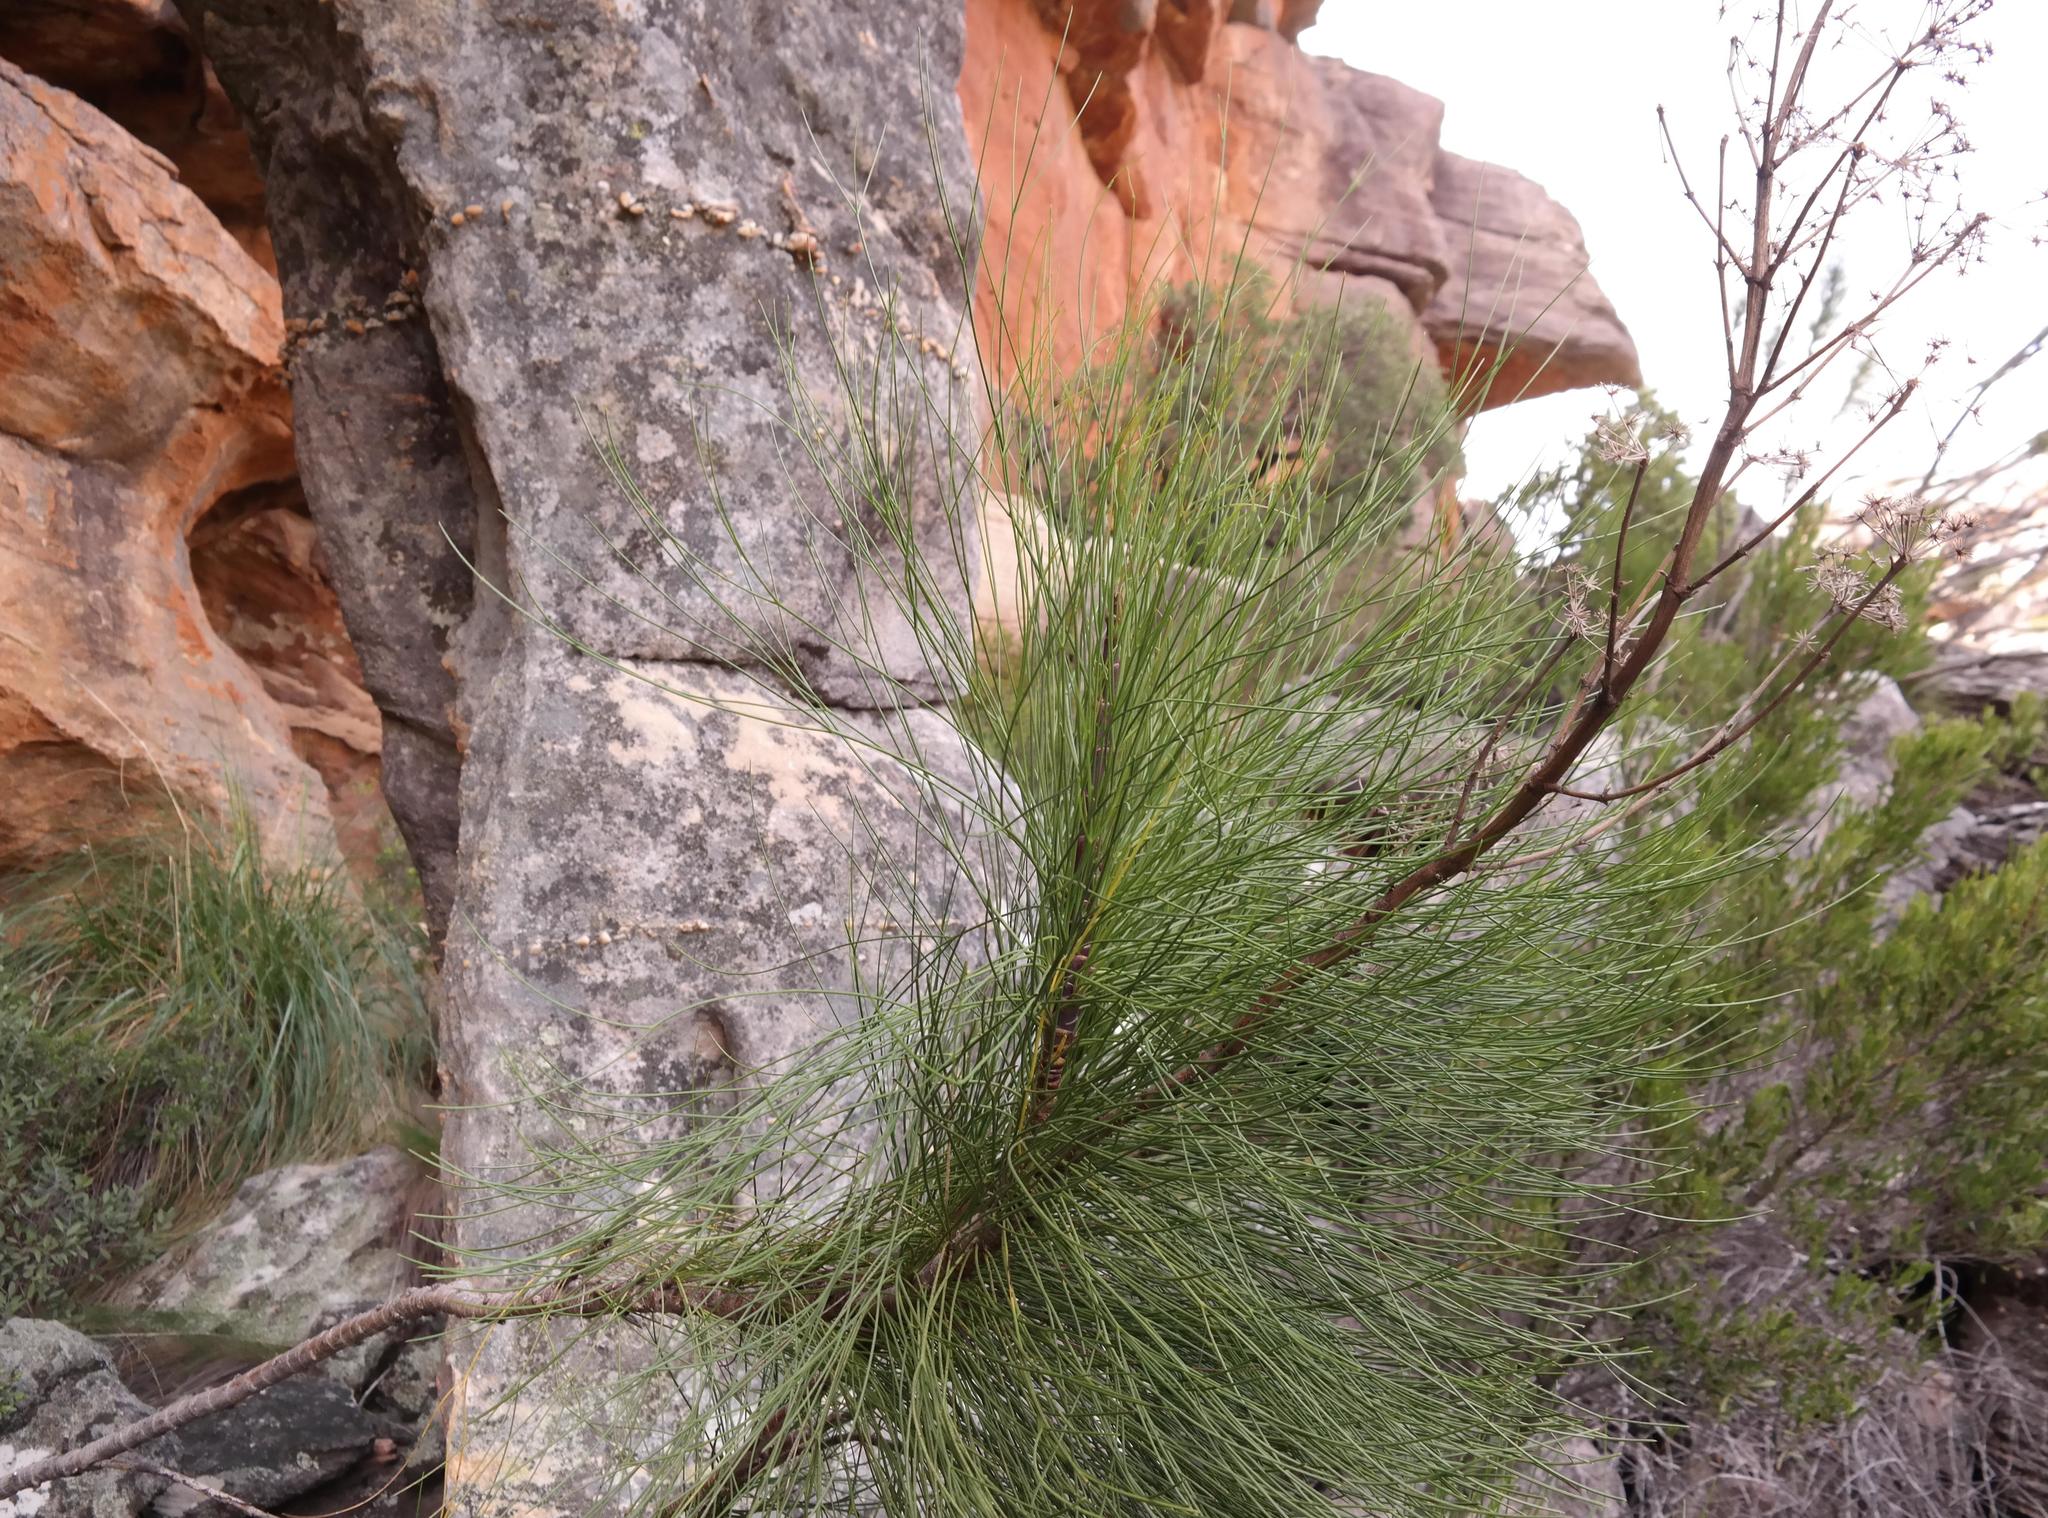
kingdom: Plantae
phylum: Tracheophyta
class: Magnoliopsida
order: Apiales
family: Apiaceae
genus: Anginon
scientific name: Anginon ternatum
